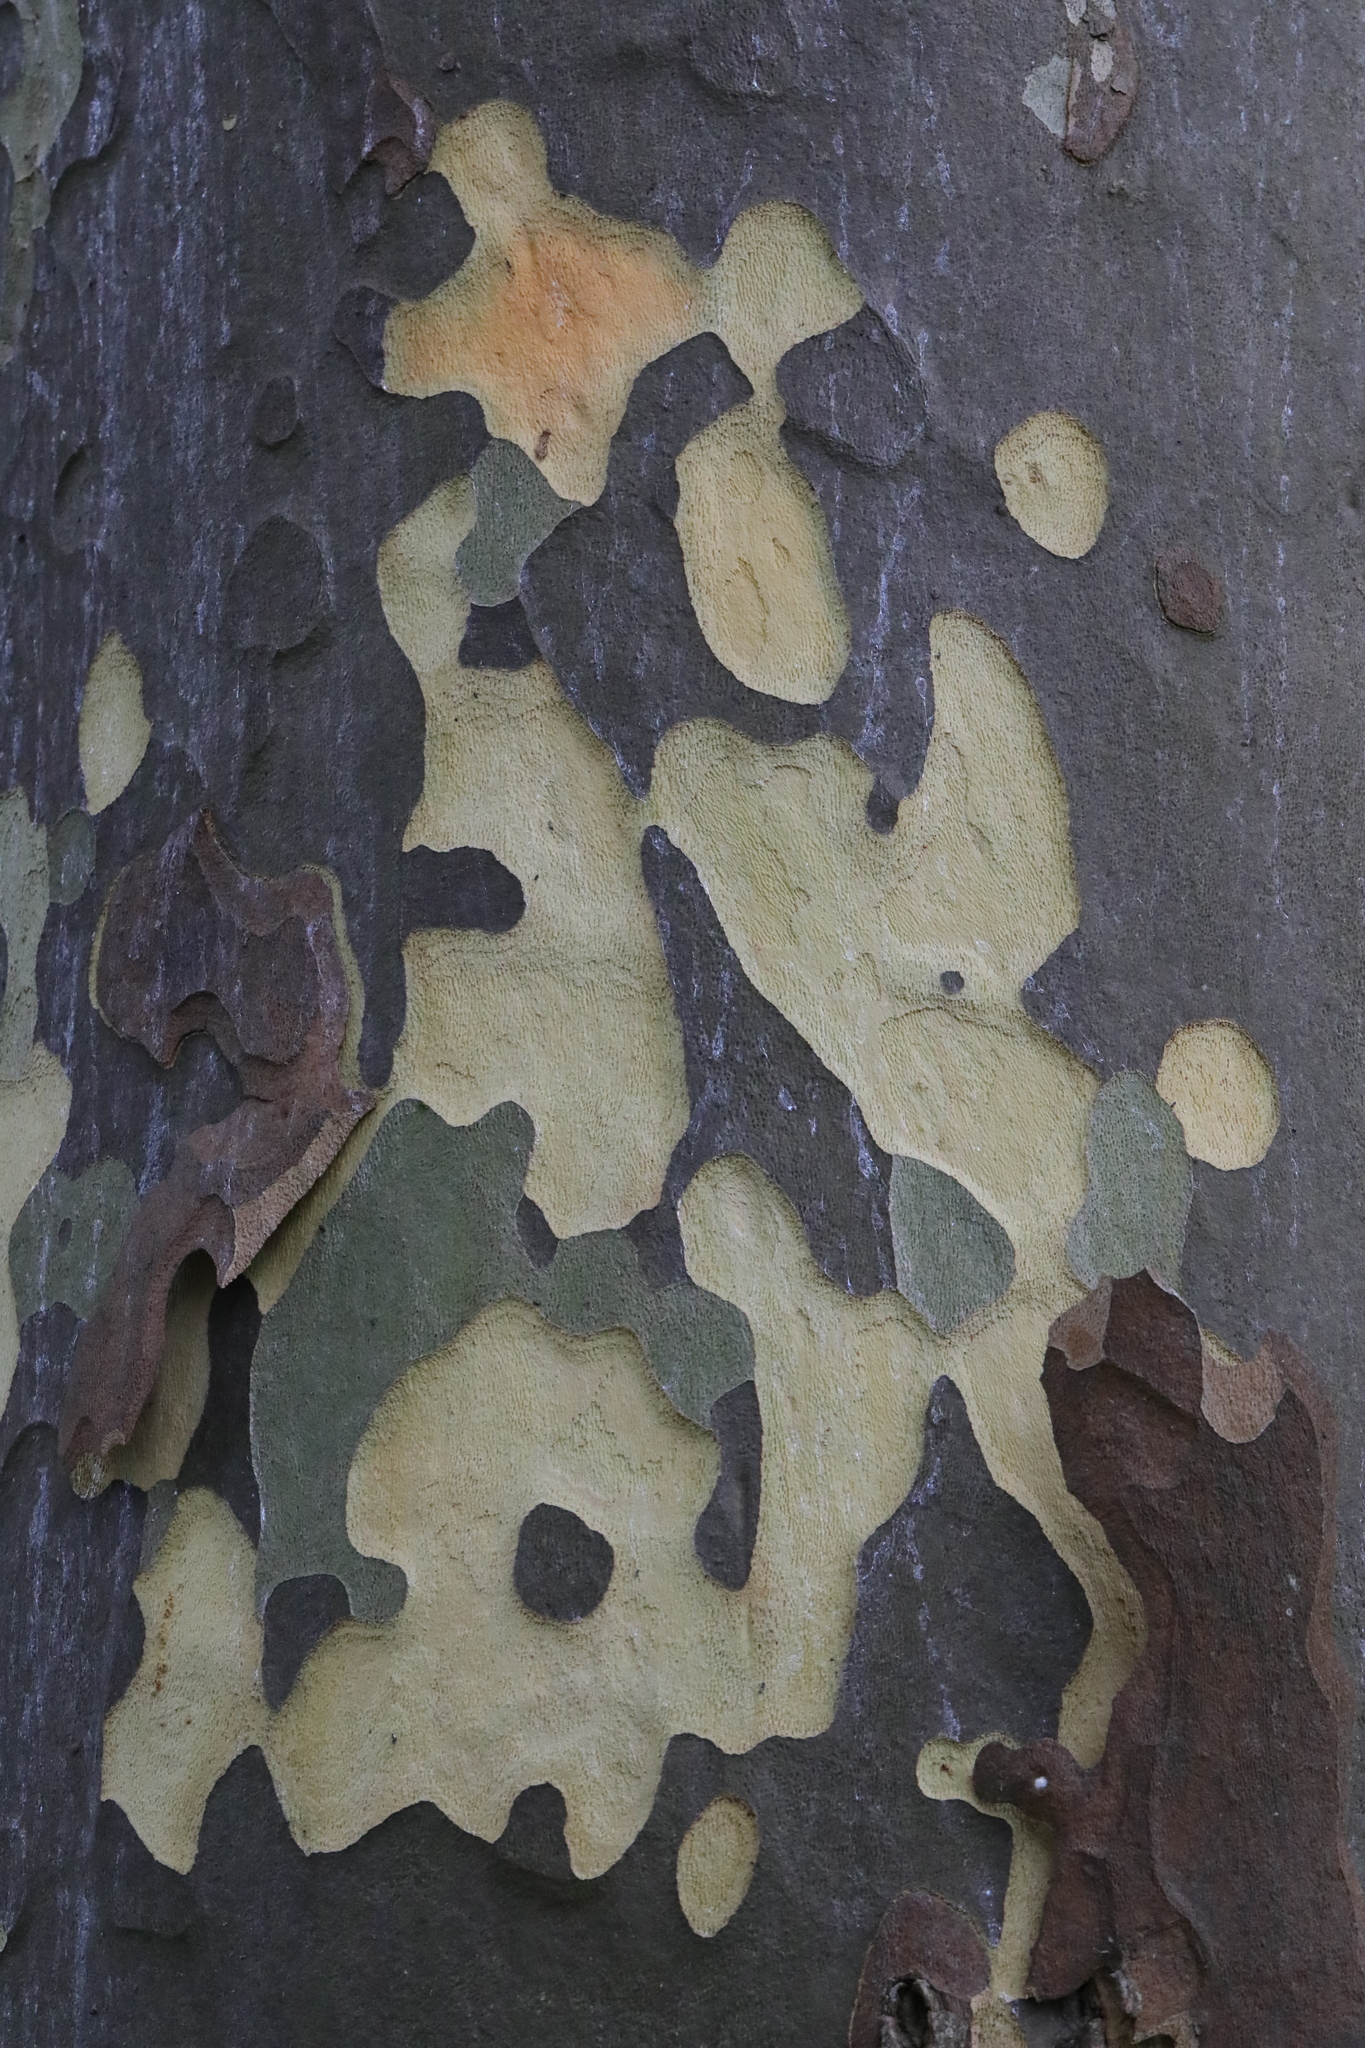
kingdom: Plantae
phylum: Tracheophyta
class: Magnoliopsida
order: Proteales
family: Platanaceae
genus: Platanus
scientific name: Platanus hispanica
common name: London plane
